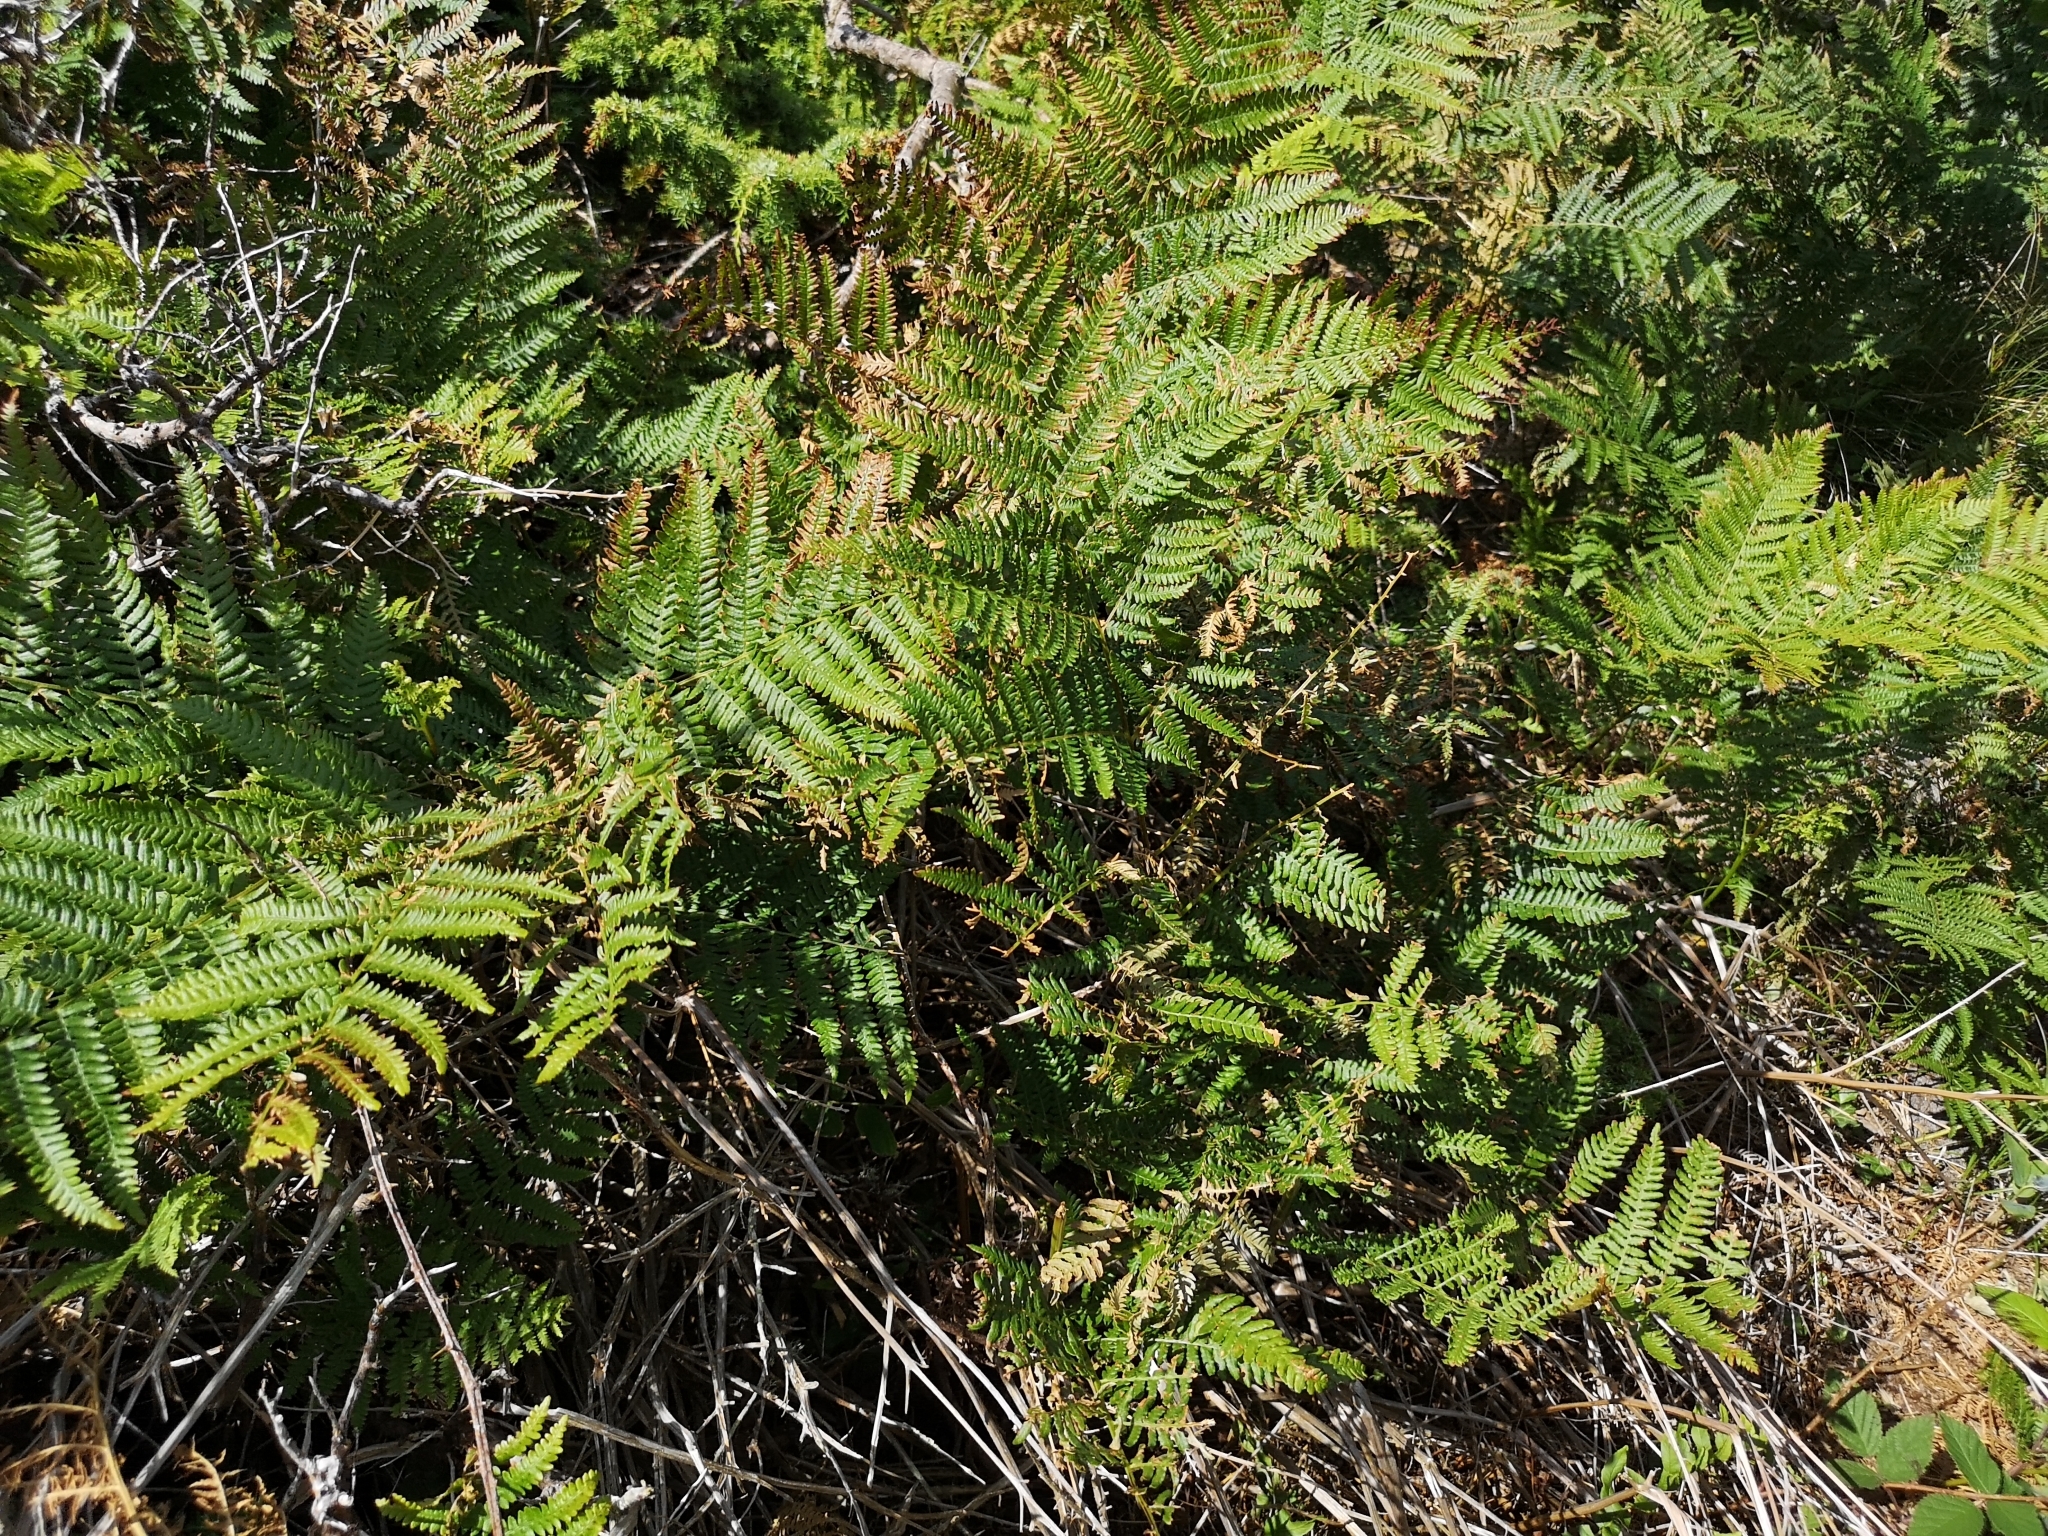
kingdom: Plantae
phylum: Tracheophyta
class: Polypodiopsida
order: Polypodiales
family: Dennstaedtiaceae
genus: Pteridium
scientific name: Pteridium aquilinum
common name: Bracken
